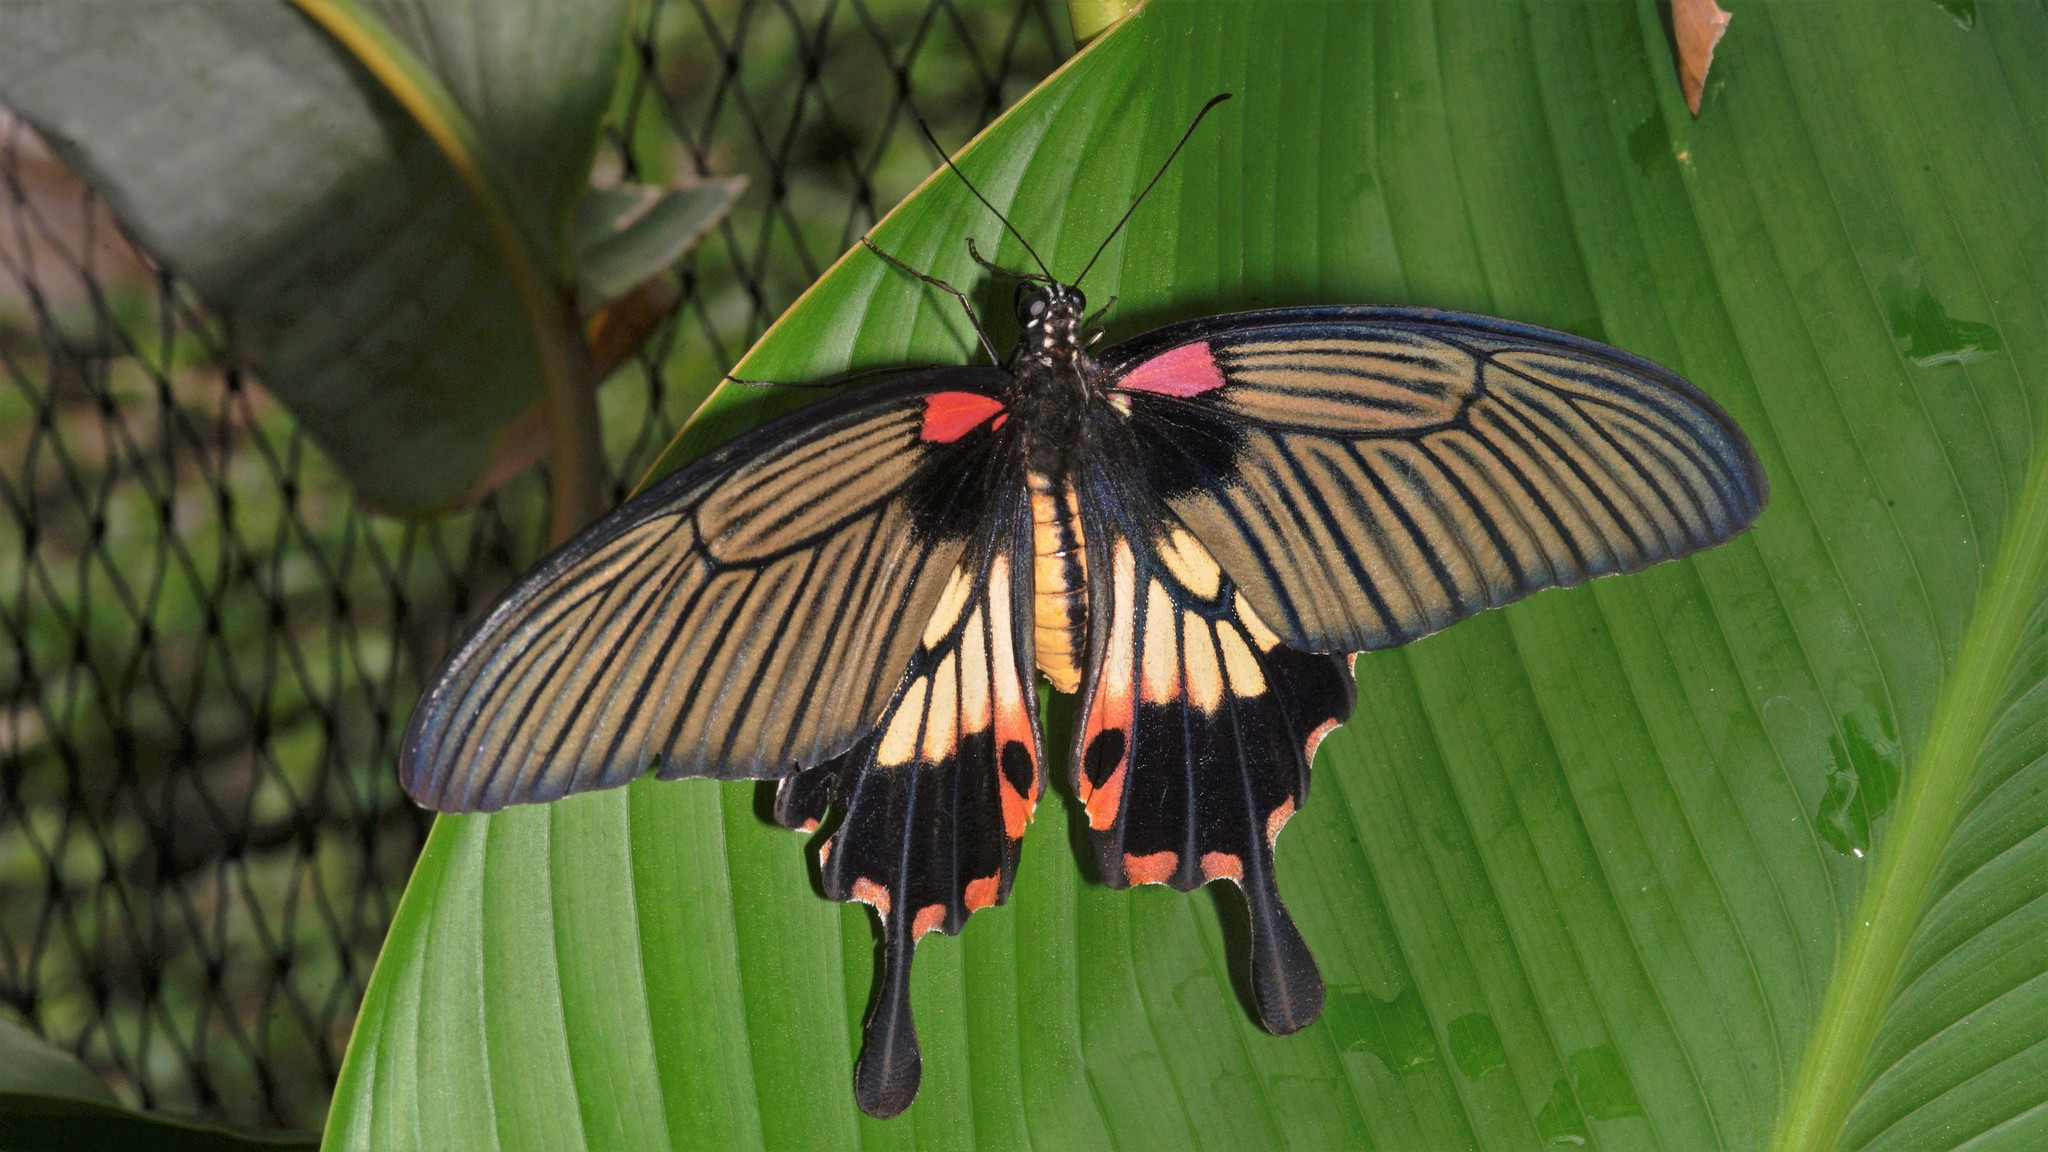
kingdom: Animalia
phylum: Arthropoda
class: Insecta
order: Lepidoptera
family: Papilionidae
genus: Papilio
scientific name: Papilio memnon
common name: Great mormon
